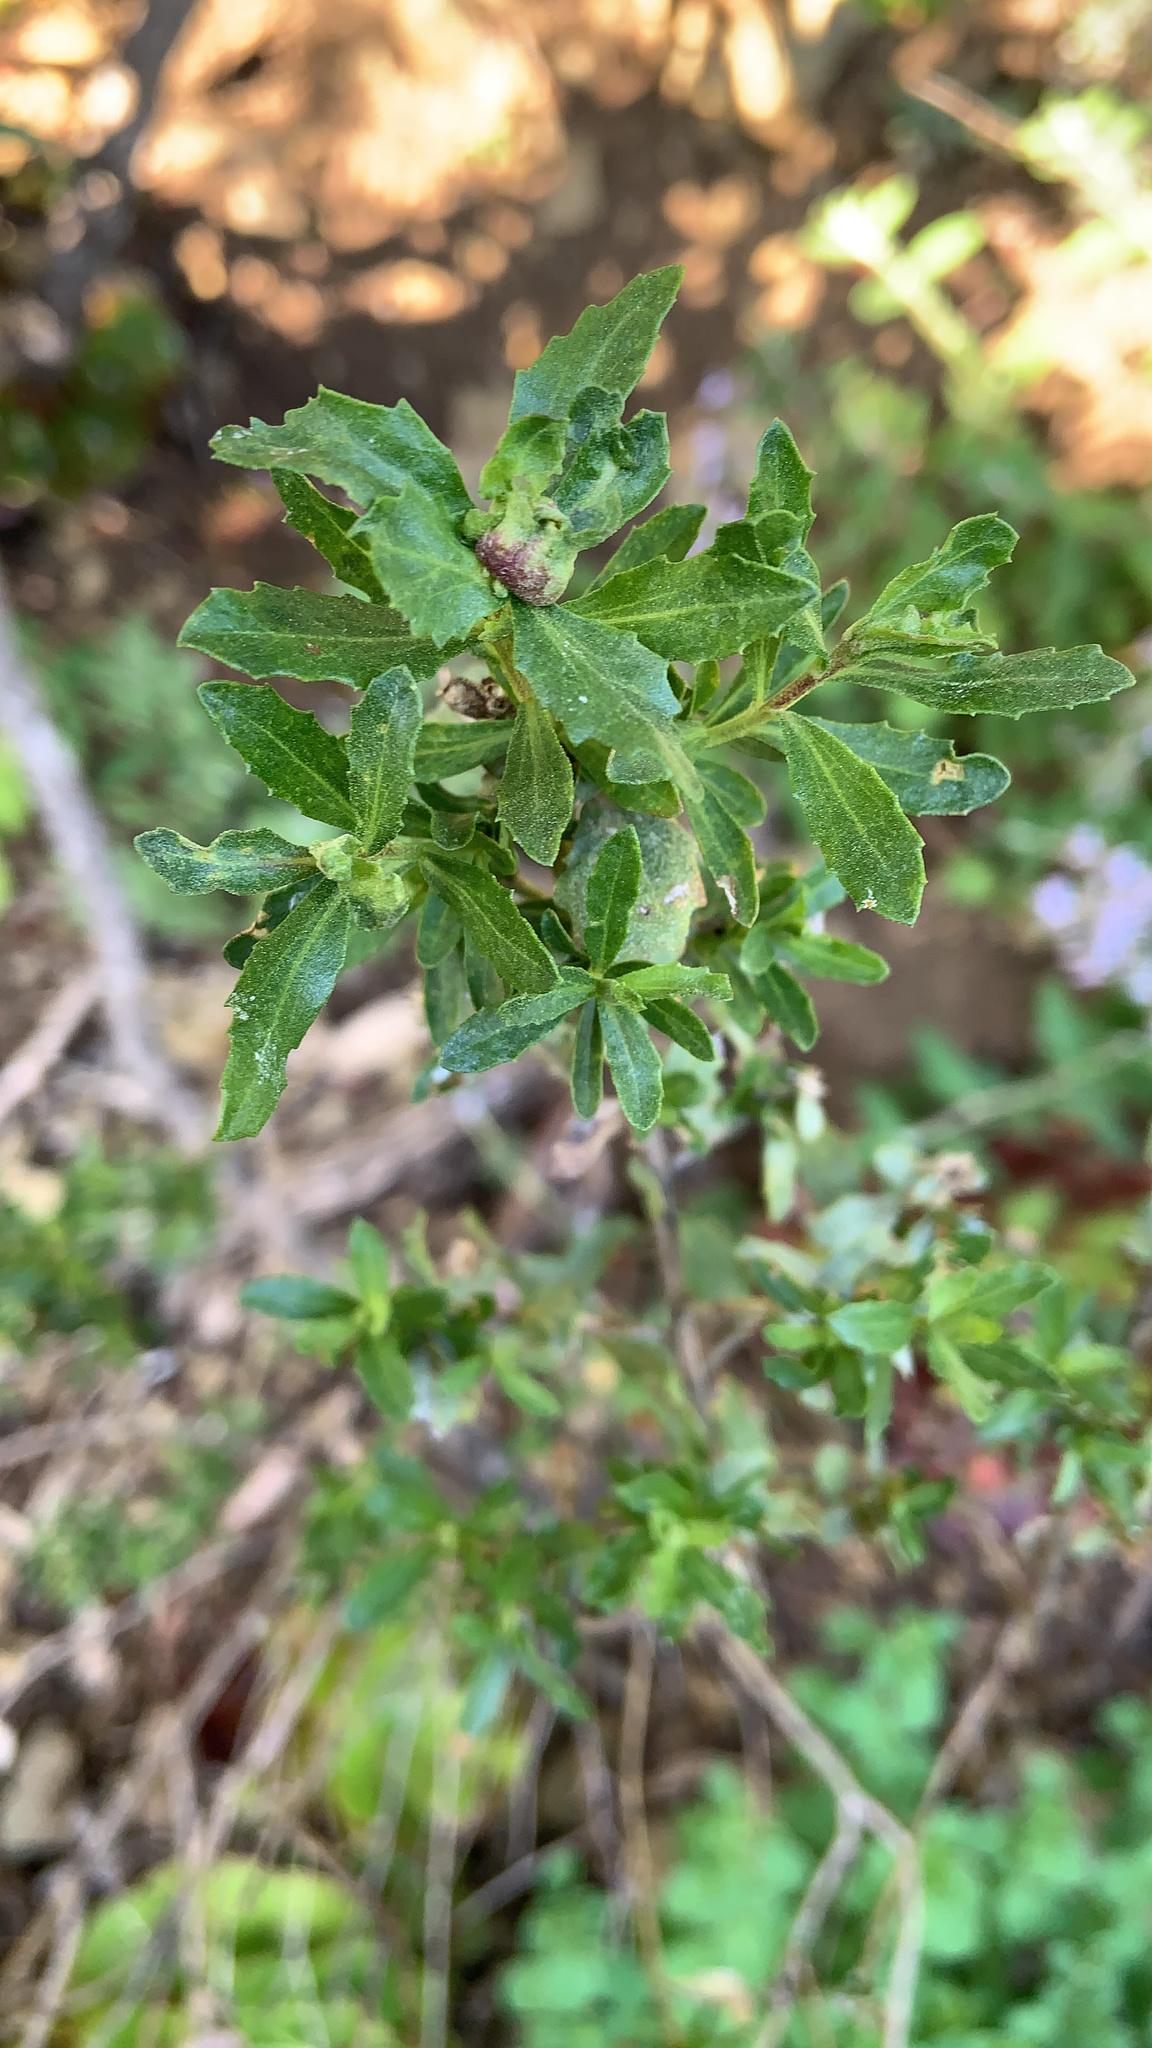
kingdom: Plantae
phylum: Tracheophyta
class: Magnoliopsida
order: Asterales
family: Asteraceae
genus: Baccharis
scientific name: Baccharis pilularis
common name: Coyotebrush
